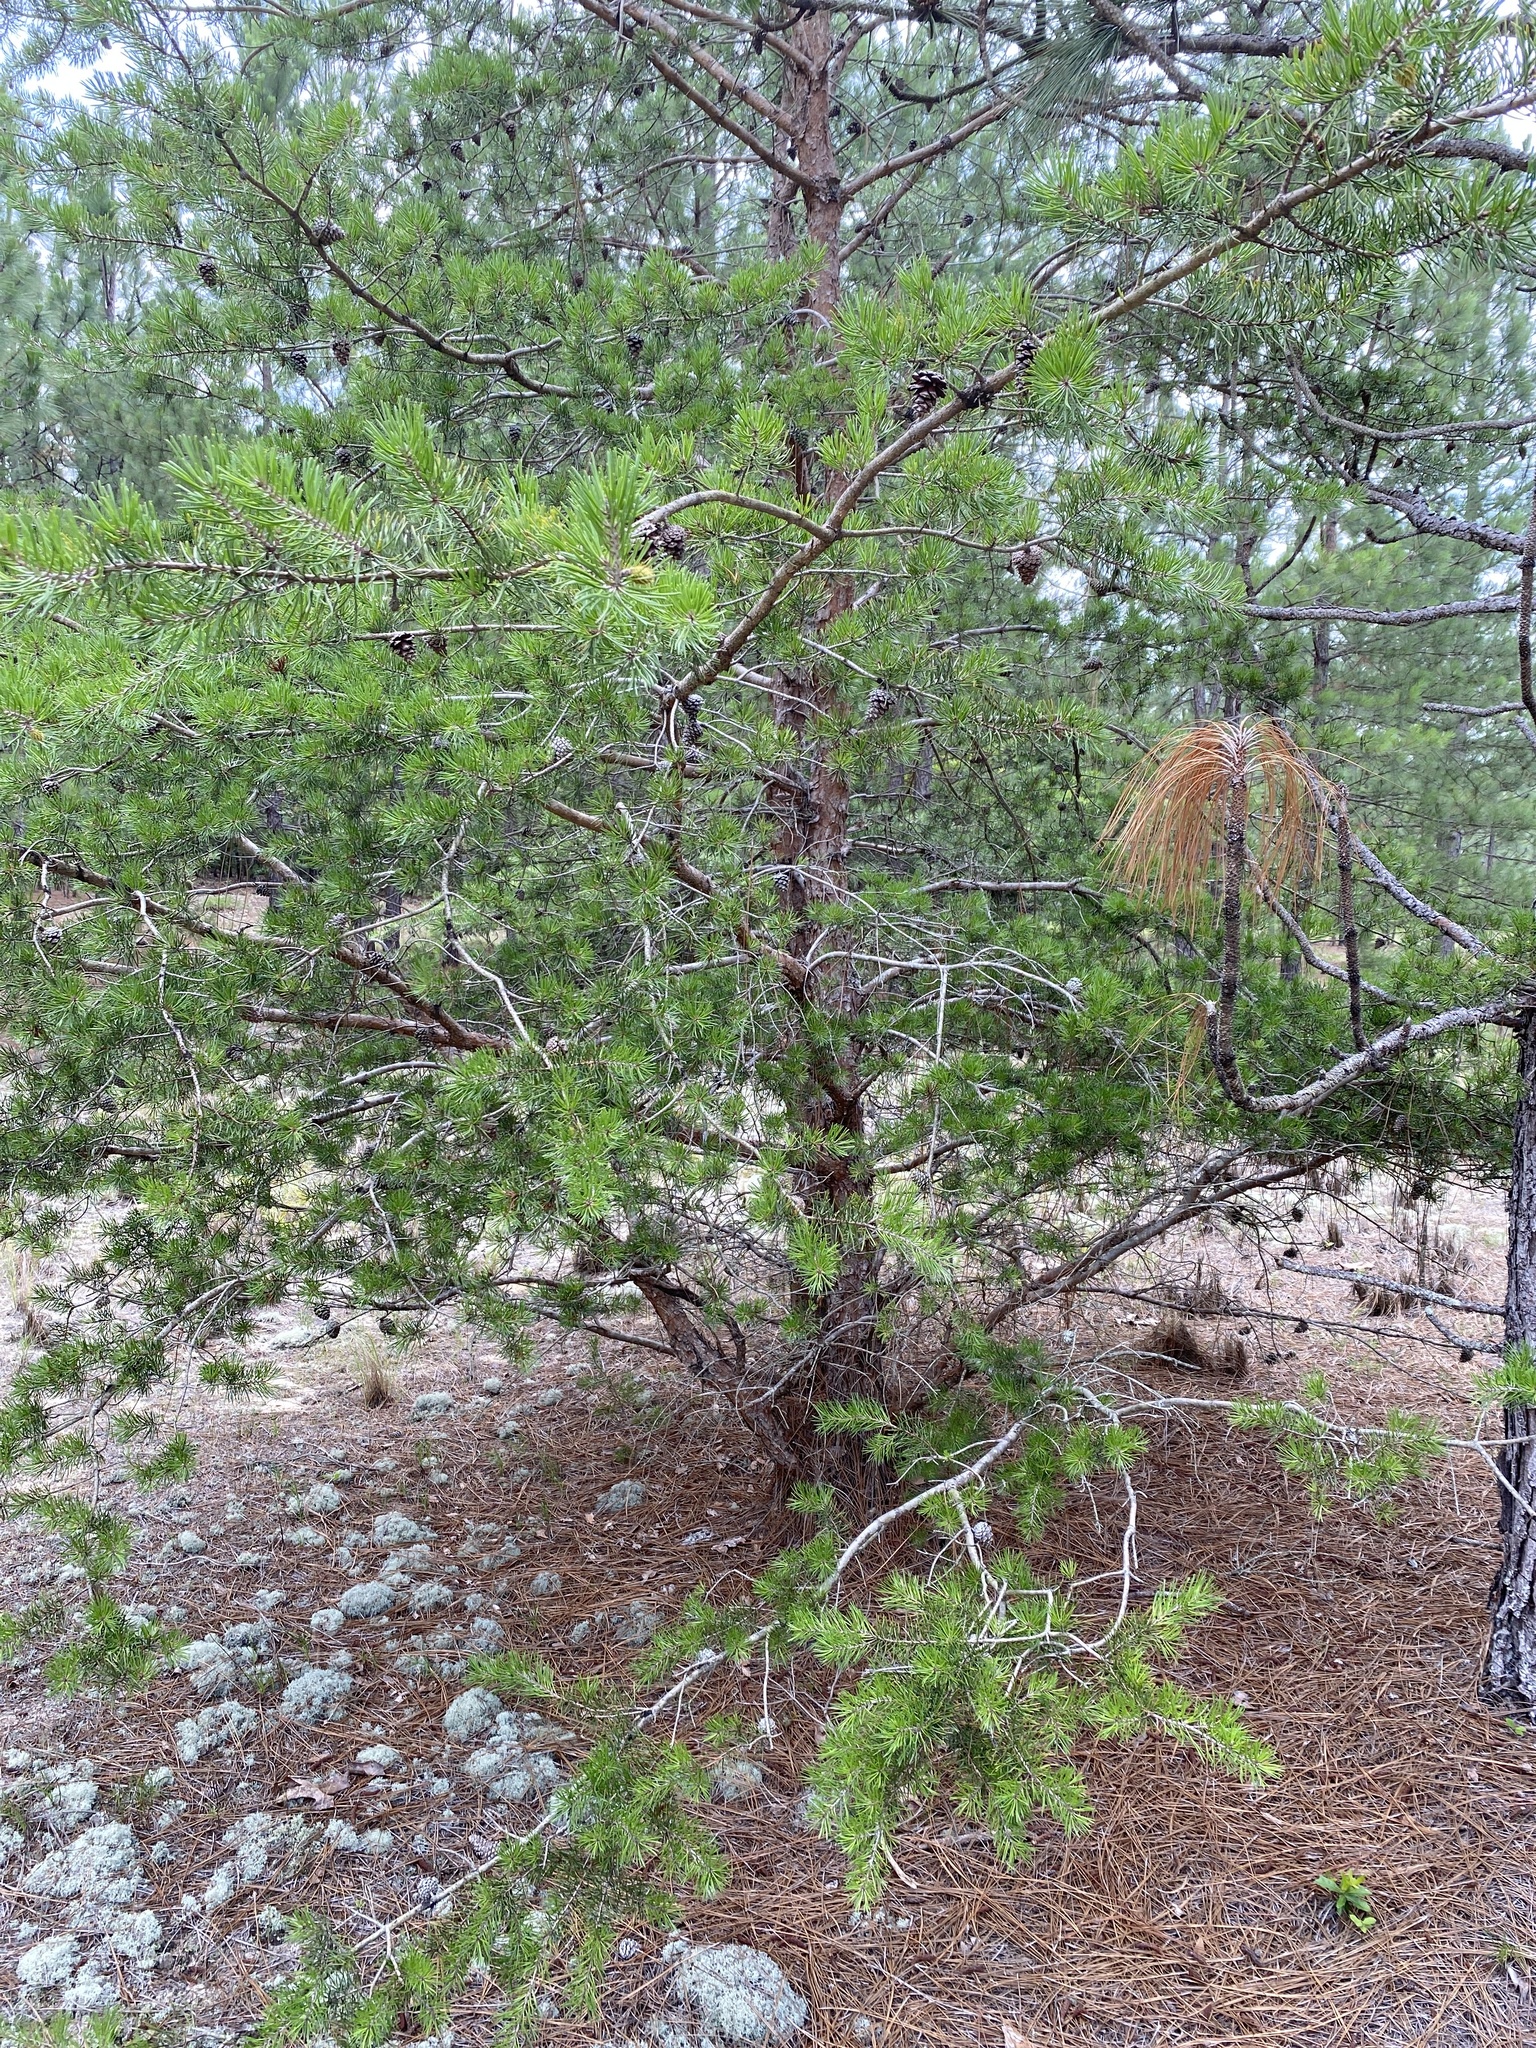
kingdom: Plantae
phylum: Tracheophyta
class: Pinopsida
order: Pinales
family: Pinaceae
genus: Pinus
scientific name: Pinus virginiana
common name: Scrub pine
